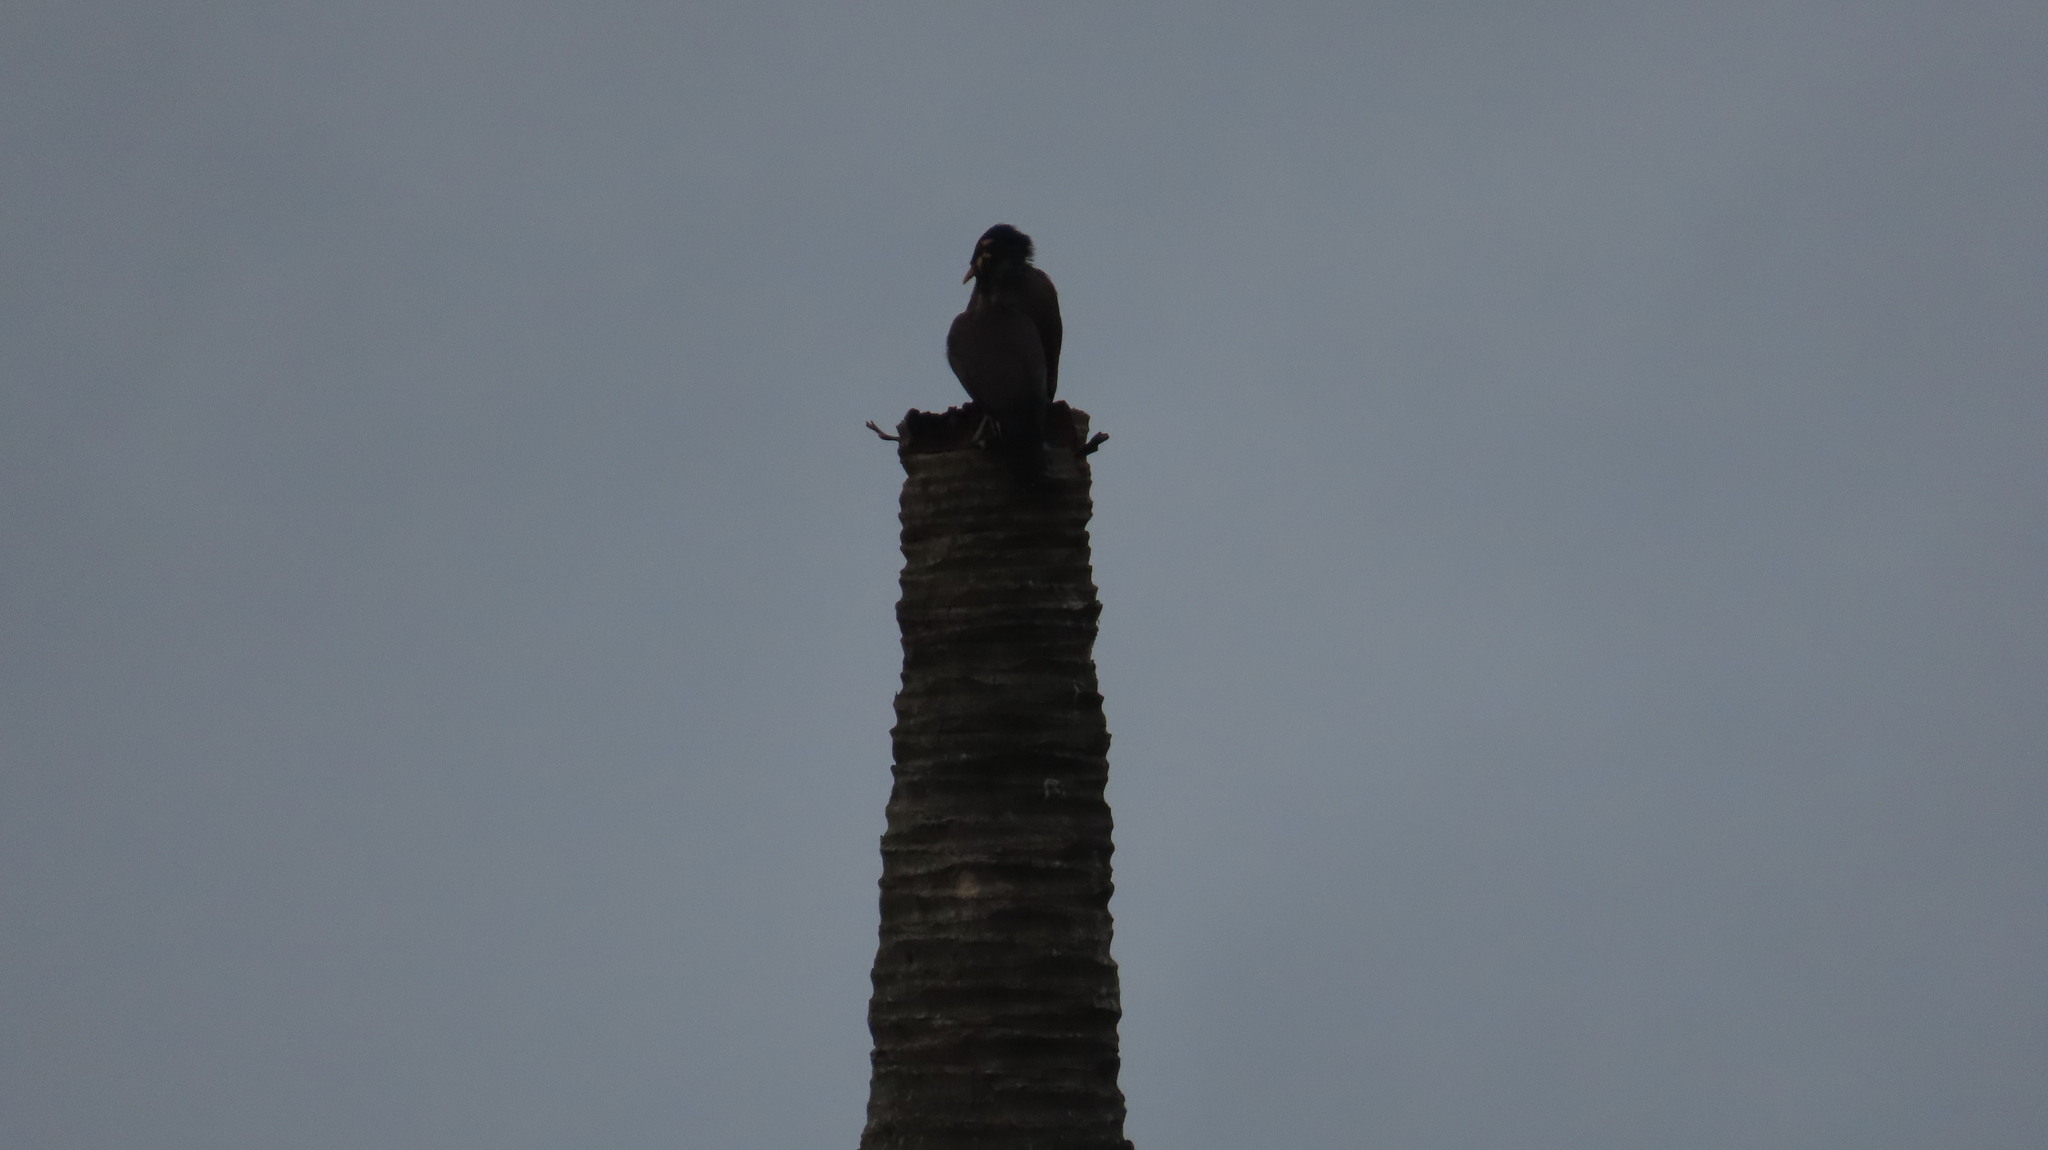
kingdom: Animalia
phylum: Chordata
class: Aves
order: Passeriformes
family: Sturnidae
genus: Acridotheres
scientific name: Acridotheres tristis
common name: Common myna
